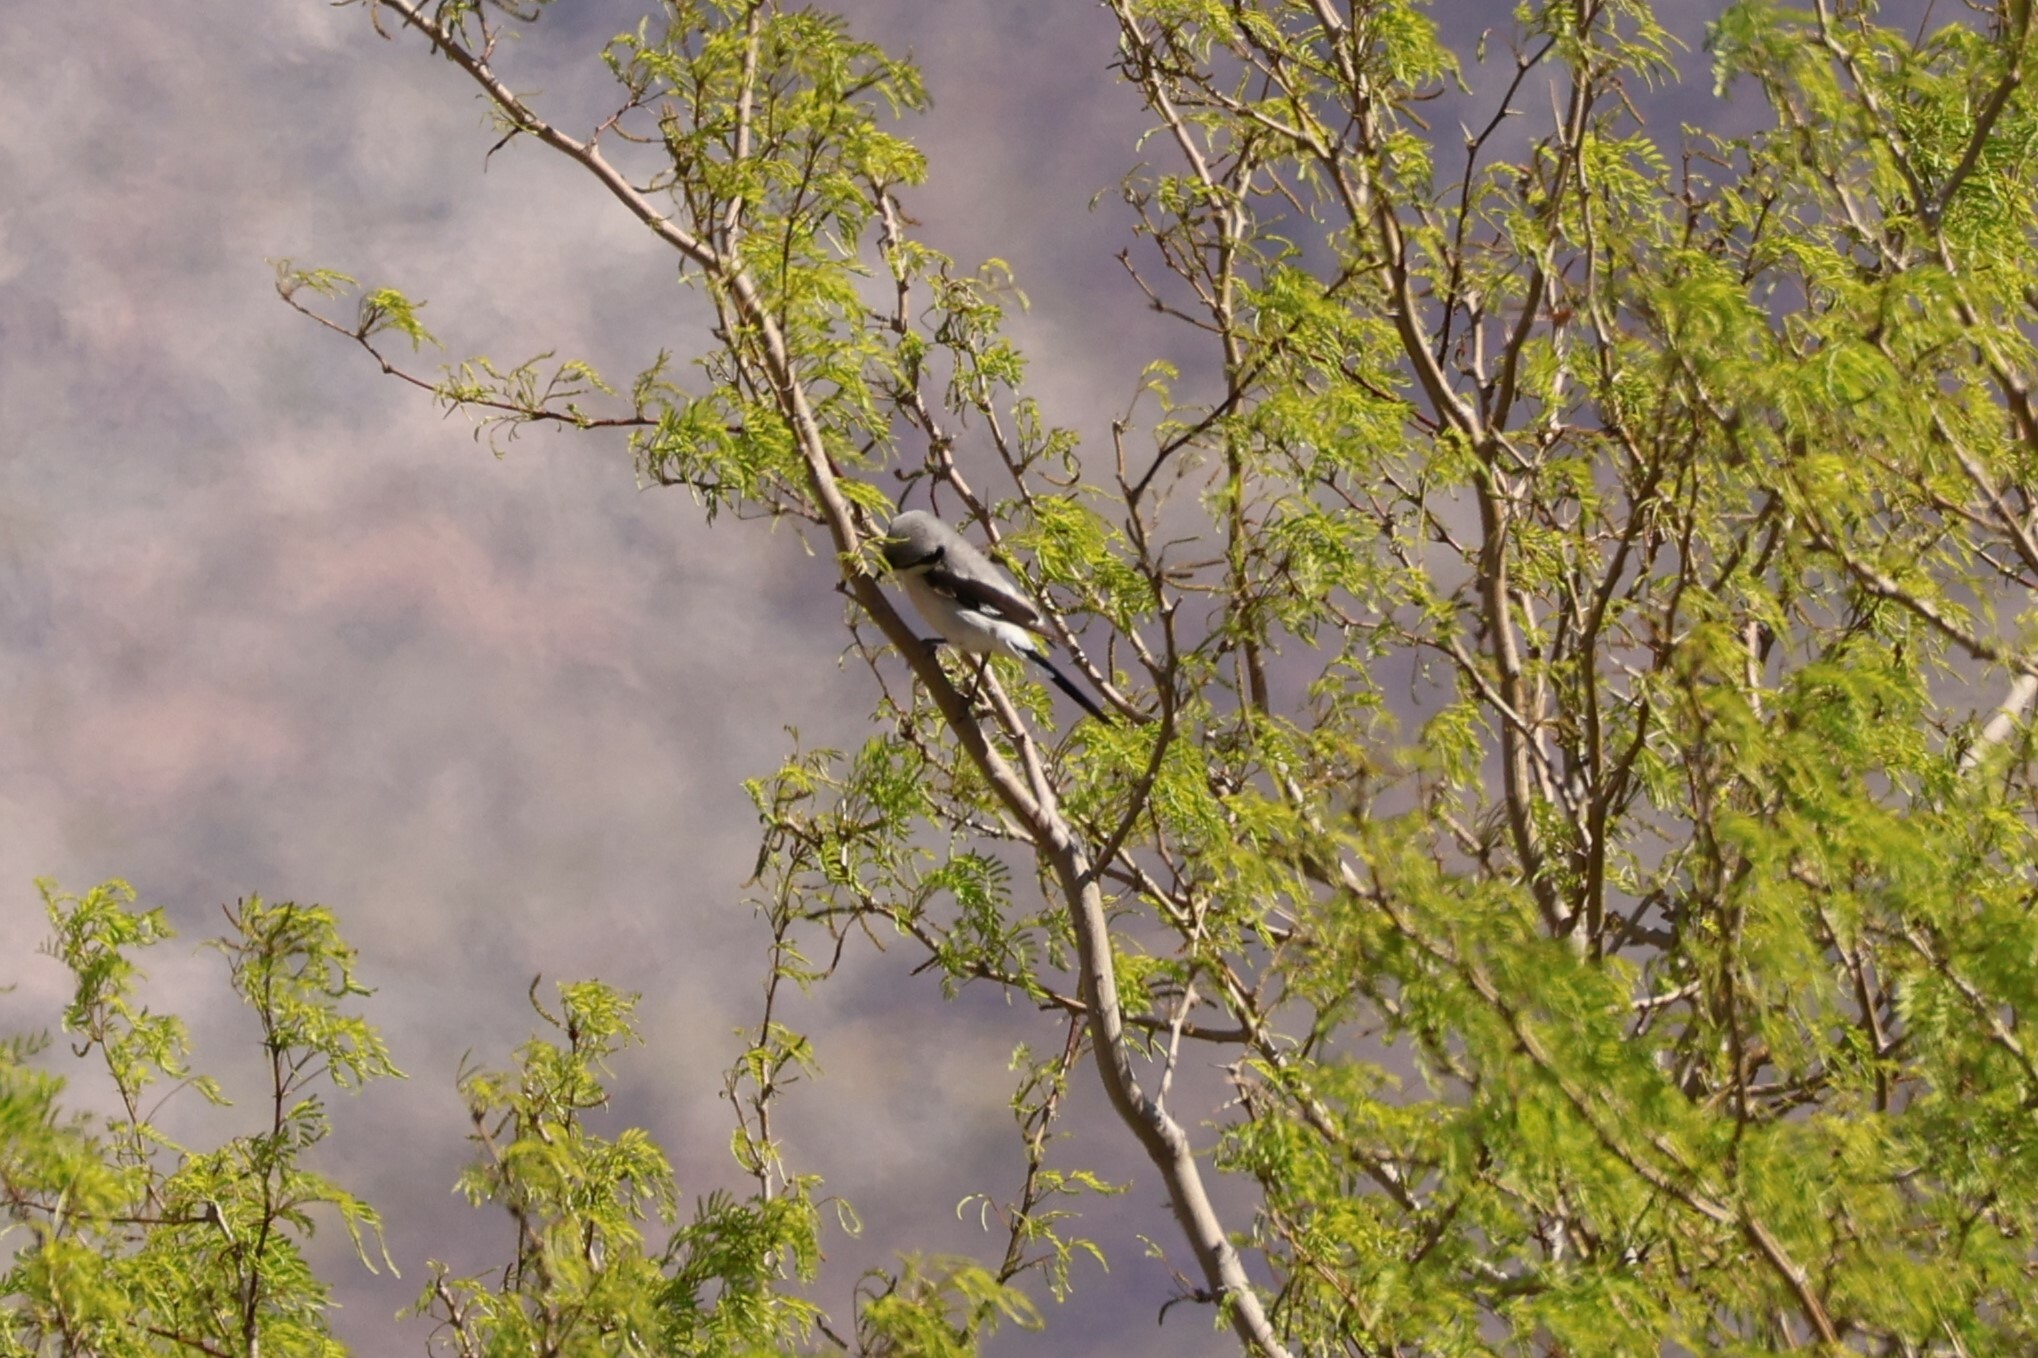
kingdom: Animalia
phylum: Chordata
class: Aves
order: Passeriformes
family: Laniidae
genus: Lanius
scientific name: Lanius ludovicianus
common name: Loggerhead shrike
